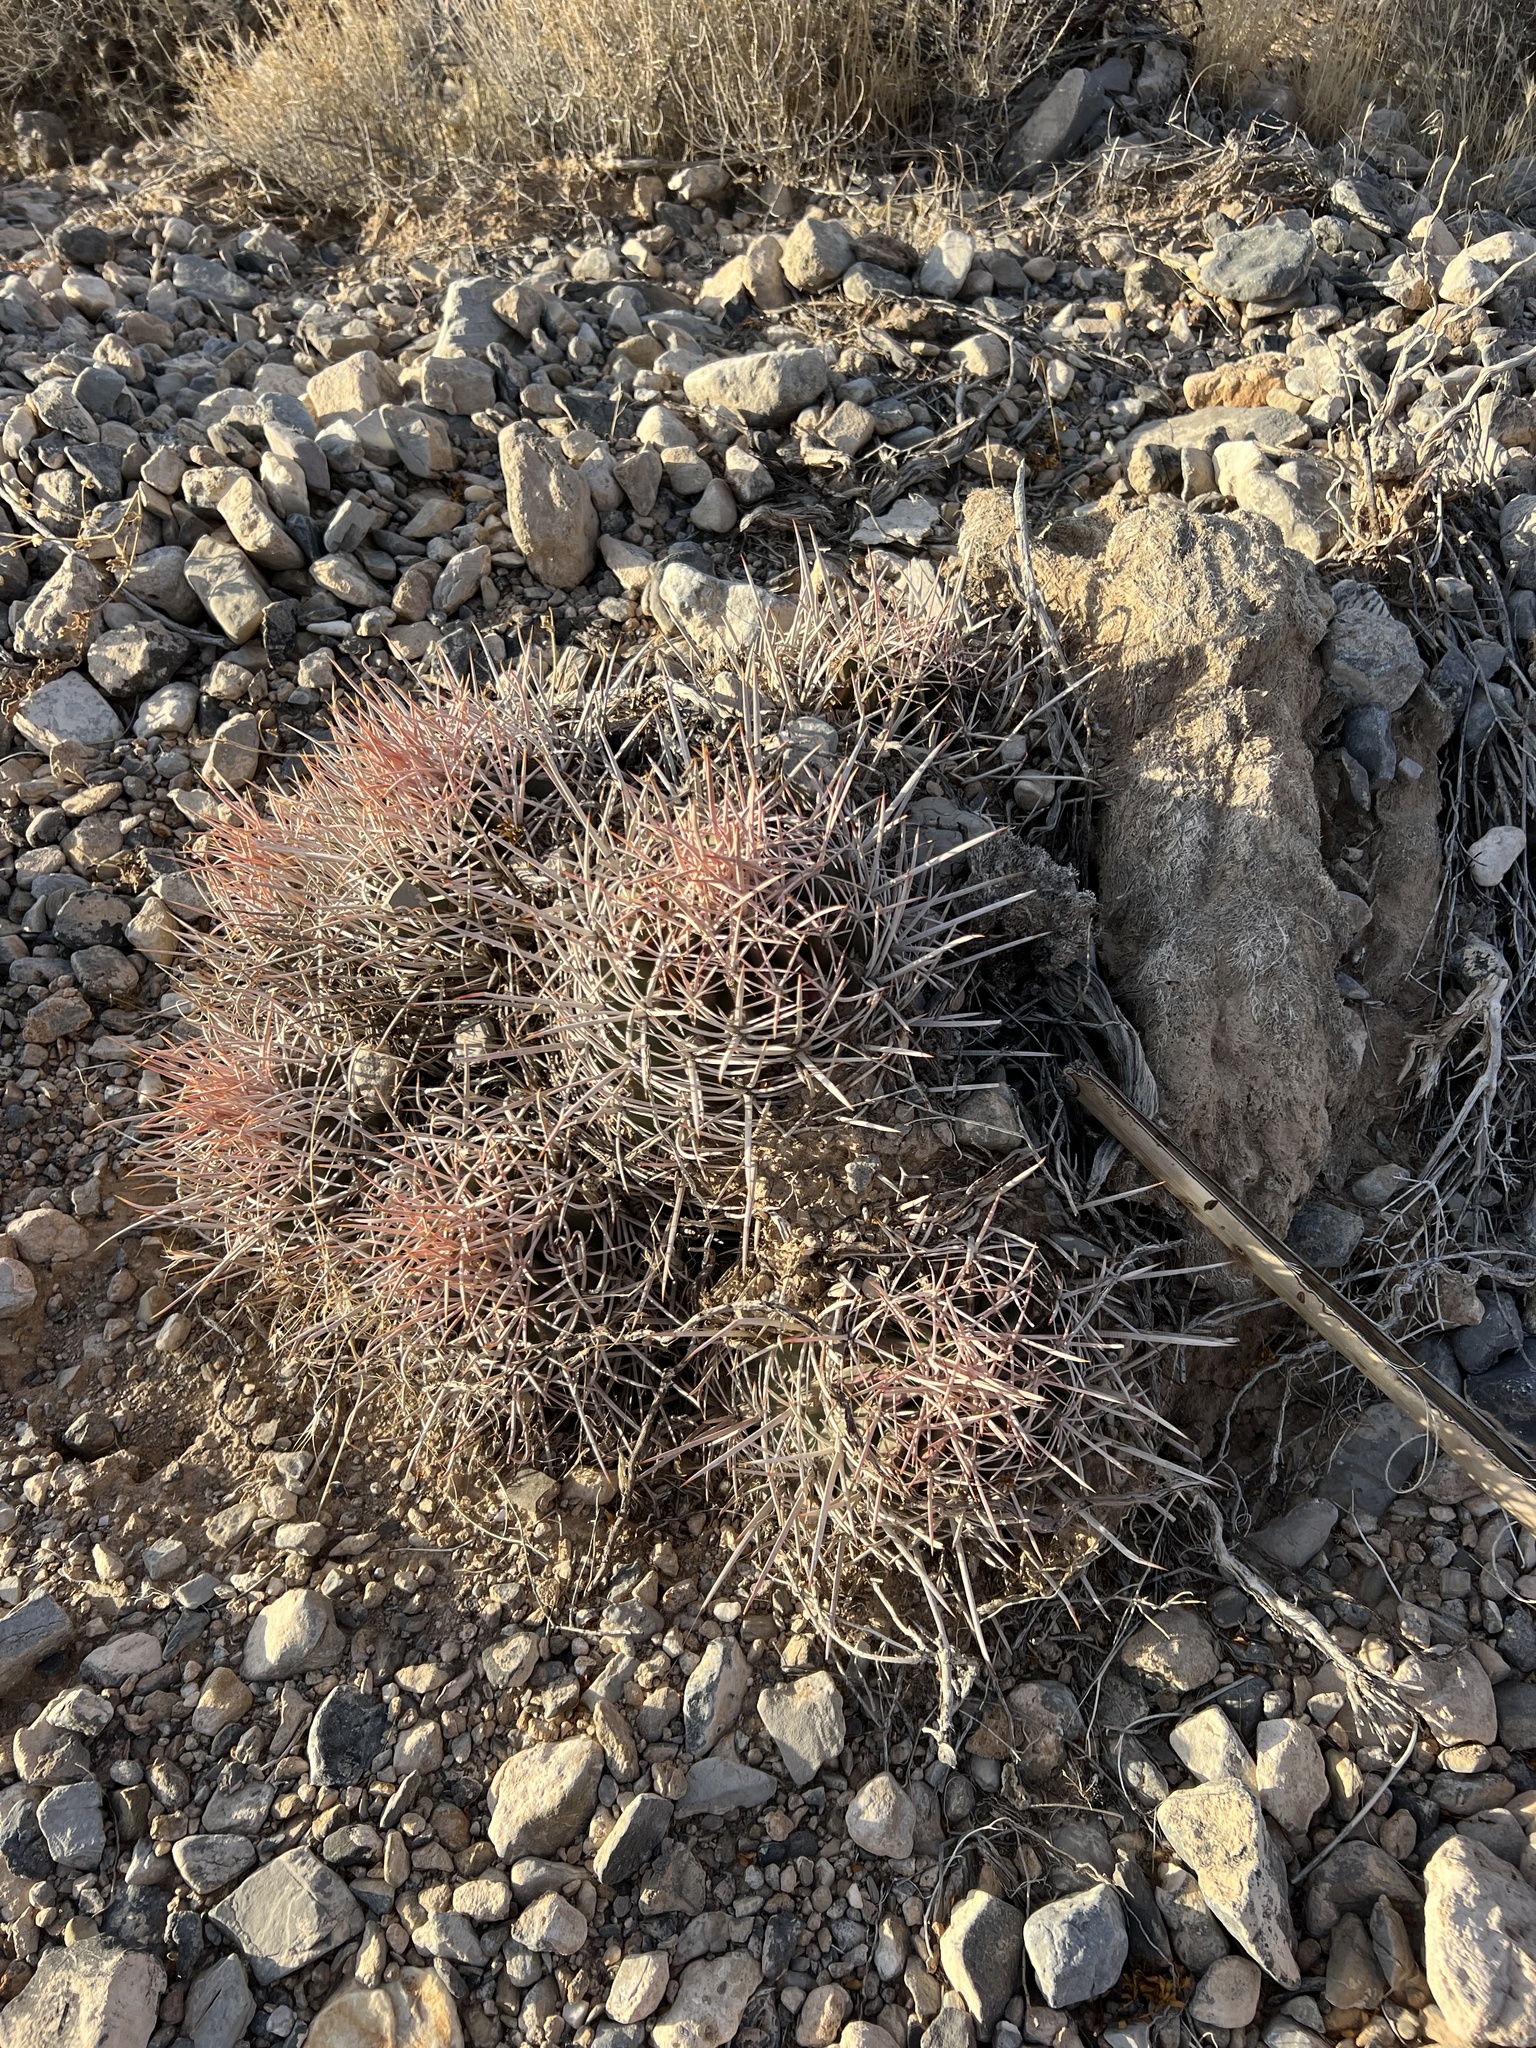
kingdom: Plantae
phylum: Tracheophyta
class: Magnoliopsida
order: Caryophyllales
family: Cactaceae
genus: Echinocactus
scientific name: Echinocactus polycephalus
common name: Cottontop cactus
